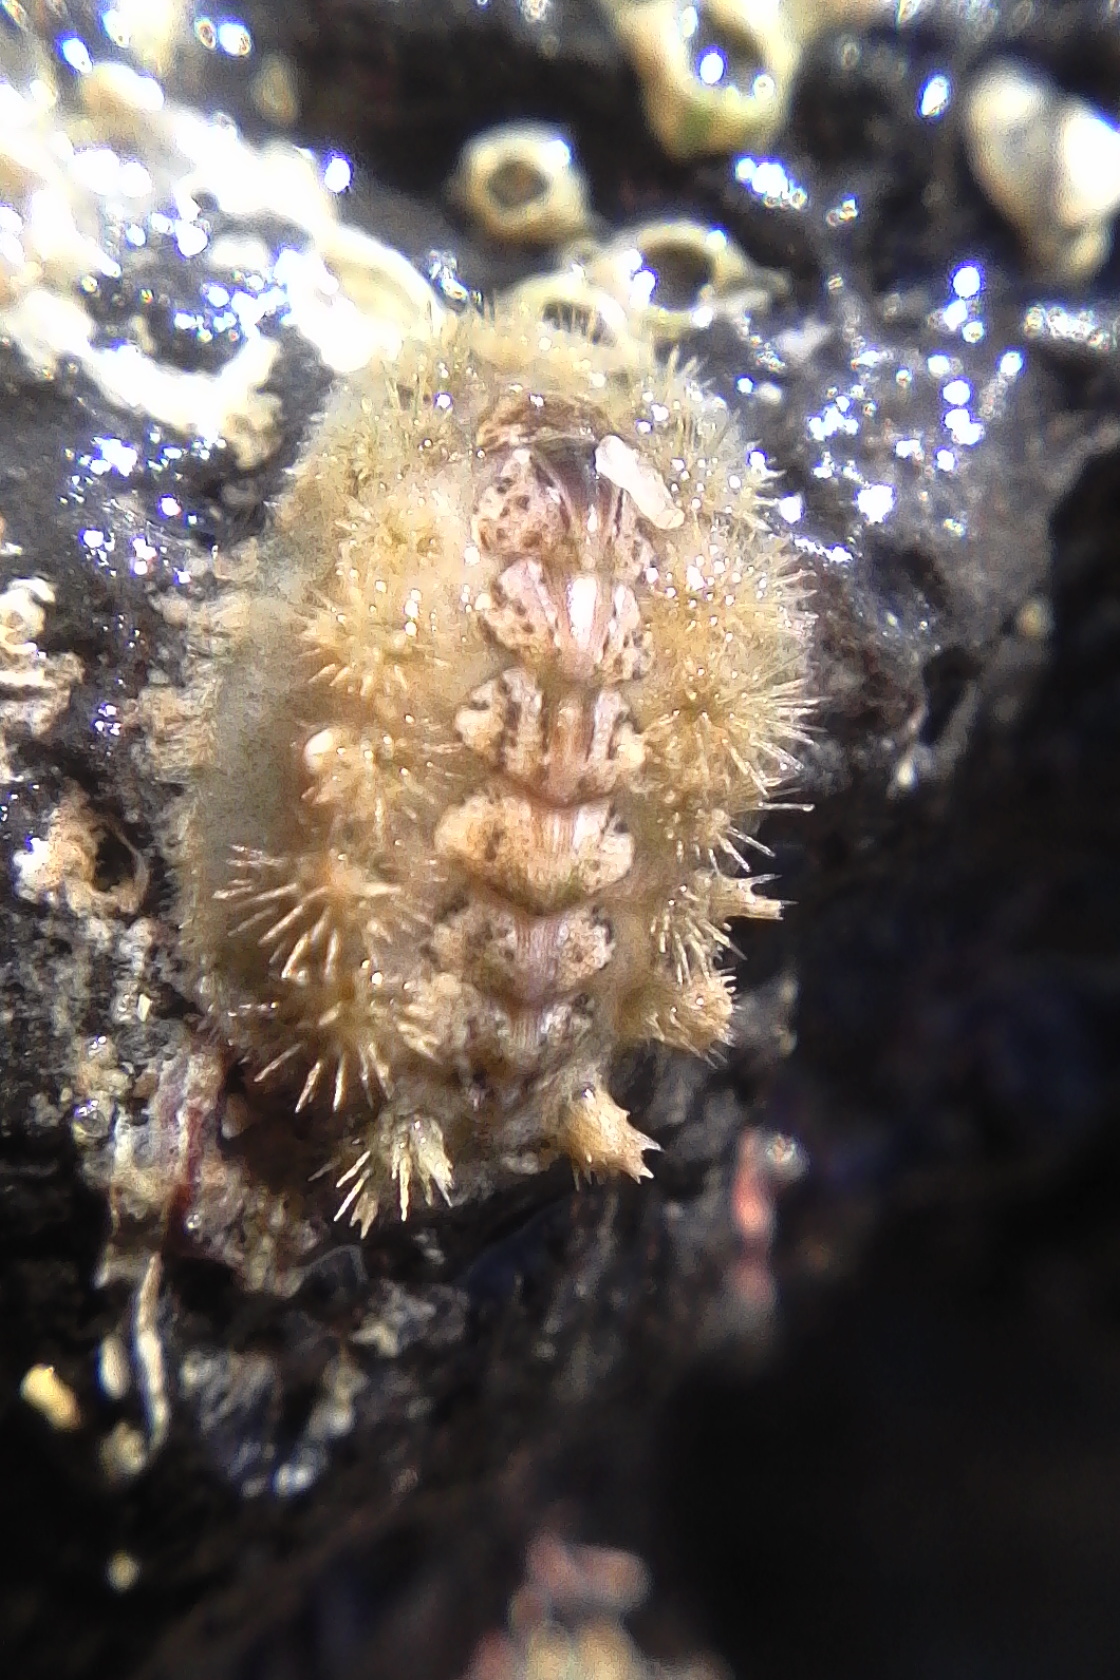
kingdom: Animalia
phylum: Mollusca
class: Polyplacophora
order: Chitonida
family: Acanthochitonidae
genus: Acanthochitona
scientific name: Acanthochitona zelandica
